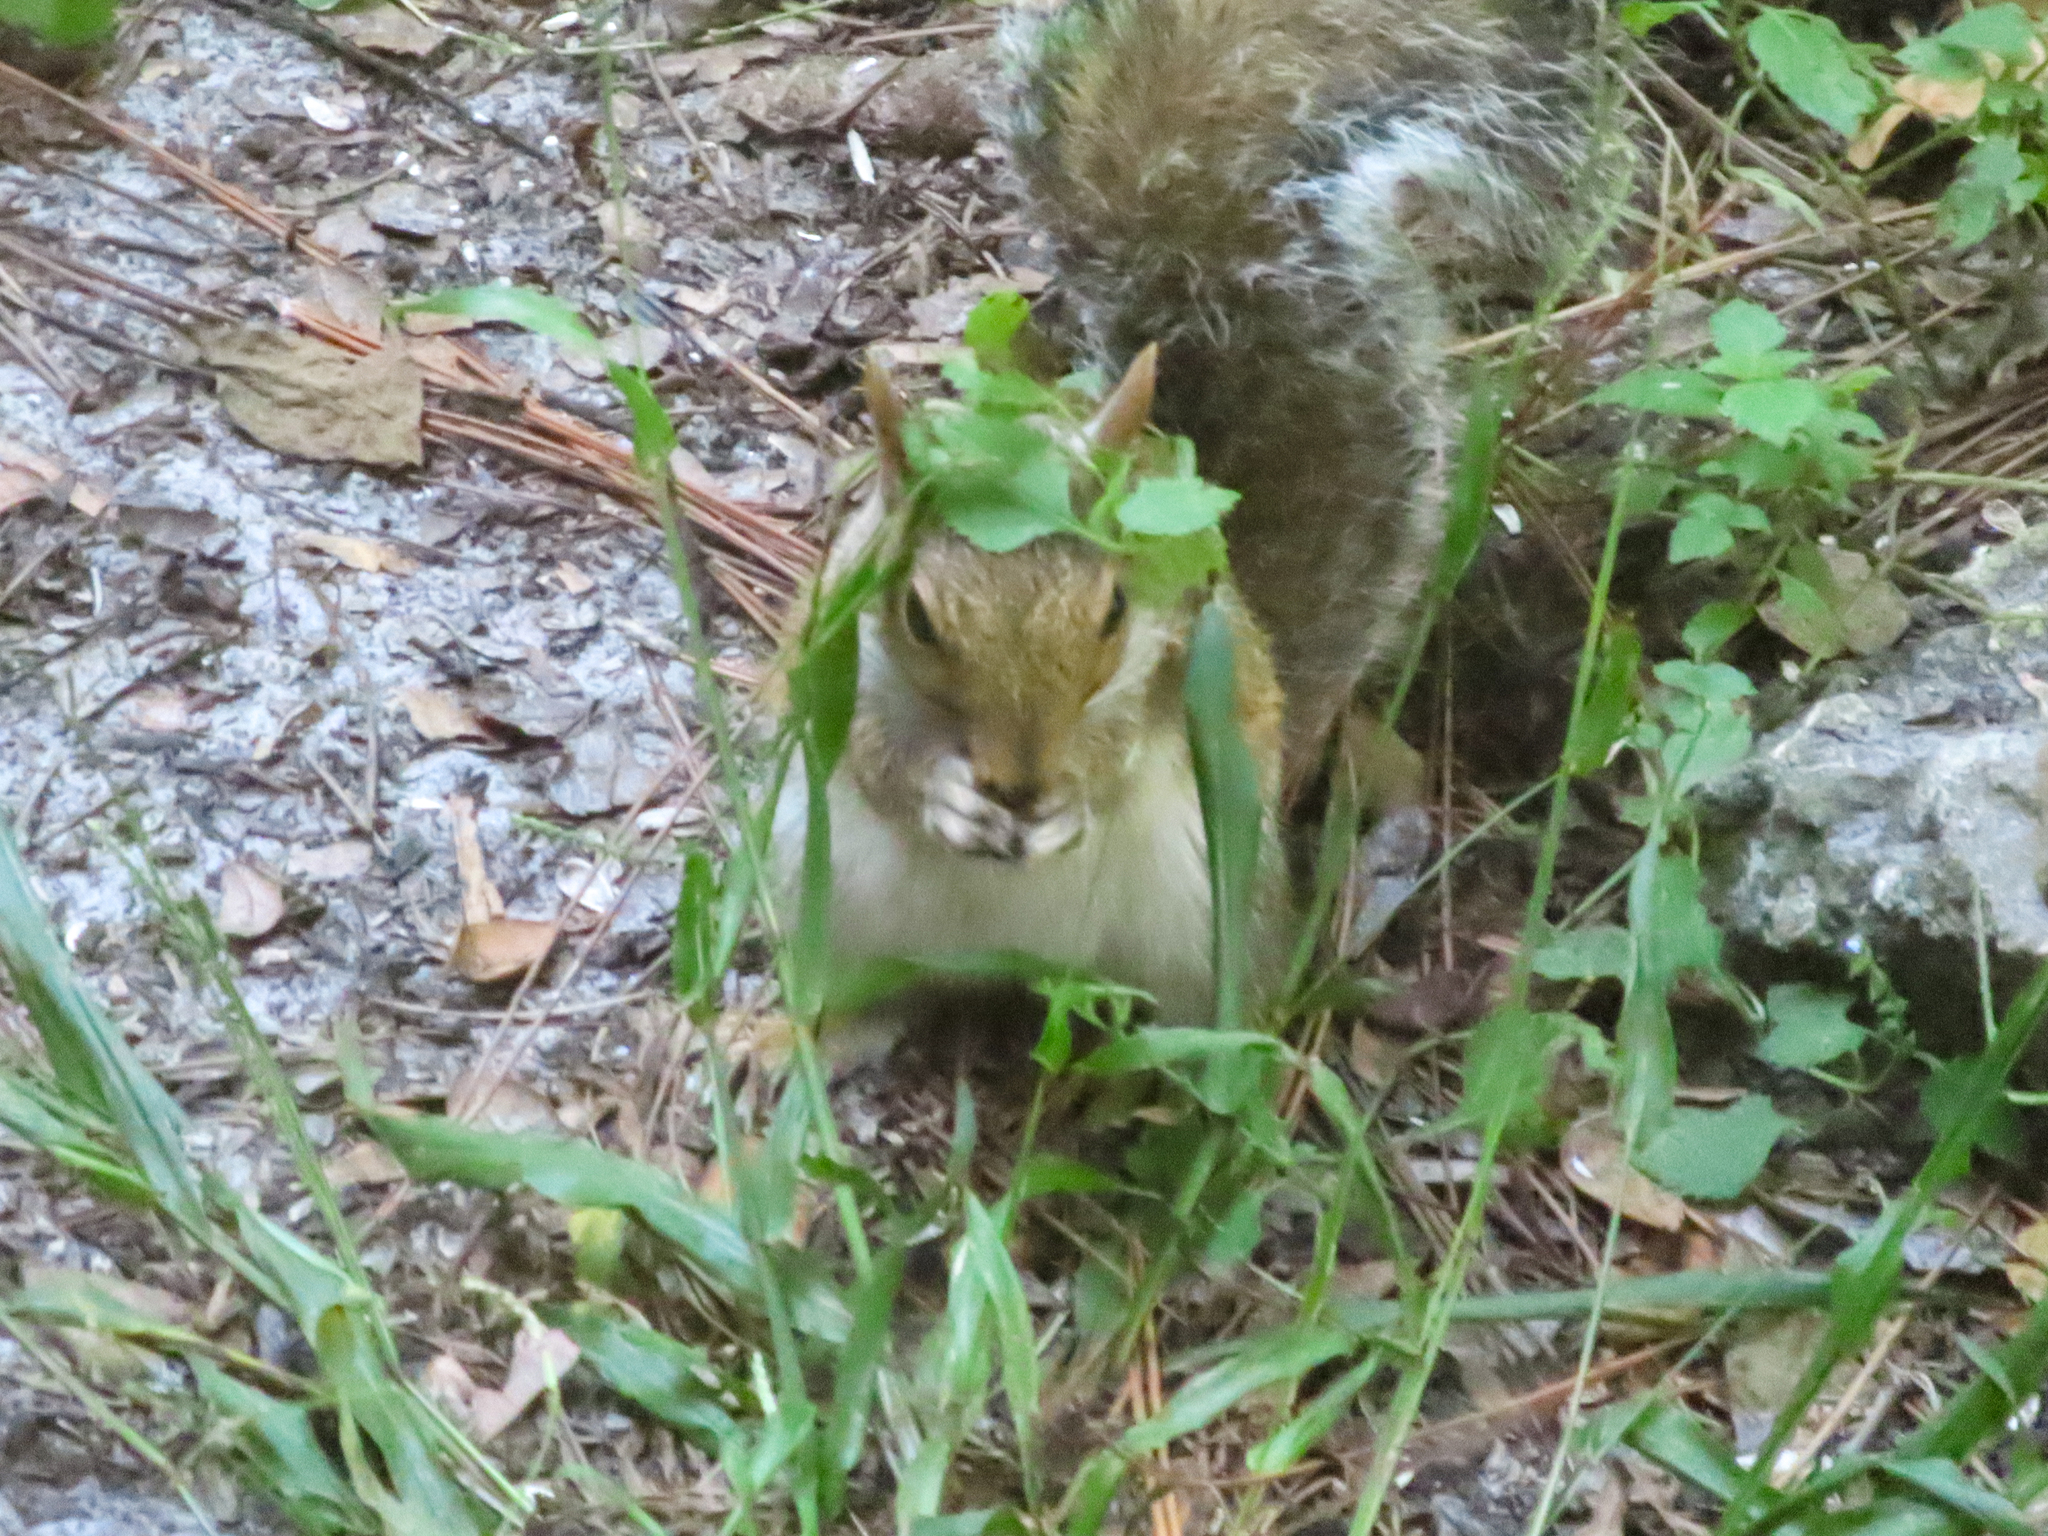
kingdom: Animalia
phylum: Chordata
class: Mammalia
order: Rodentia
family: Sciuridae
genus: Sciurus
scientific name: Sciurus carolinensis
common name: Eastern gray squirrel
